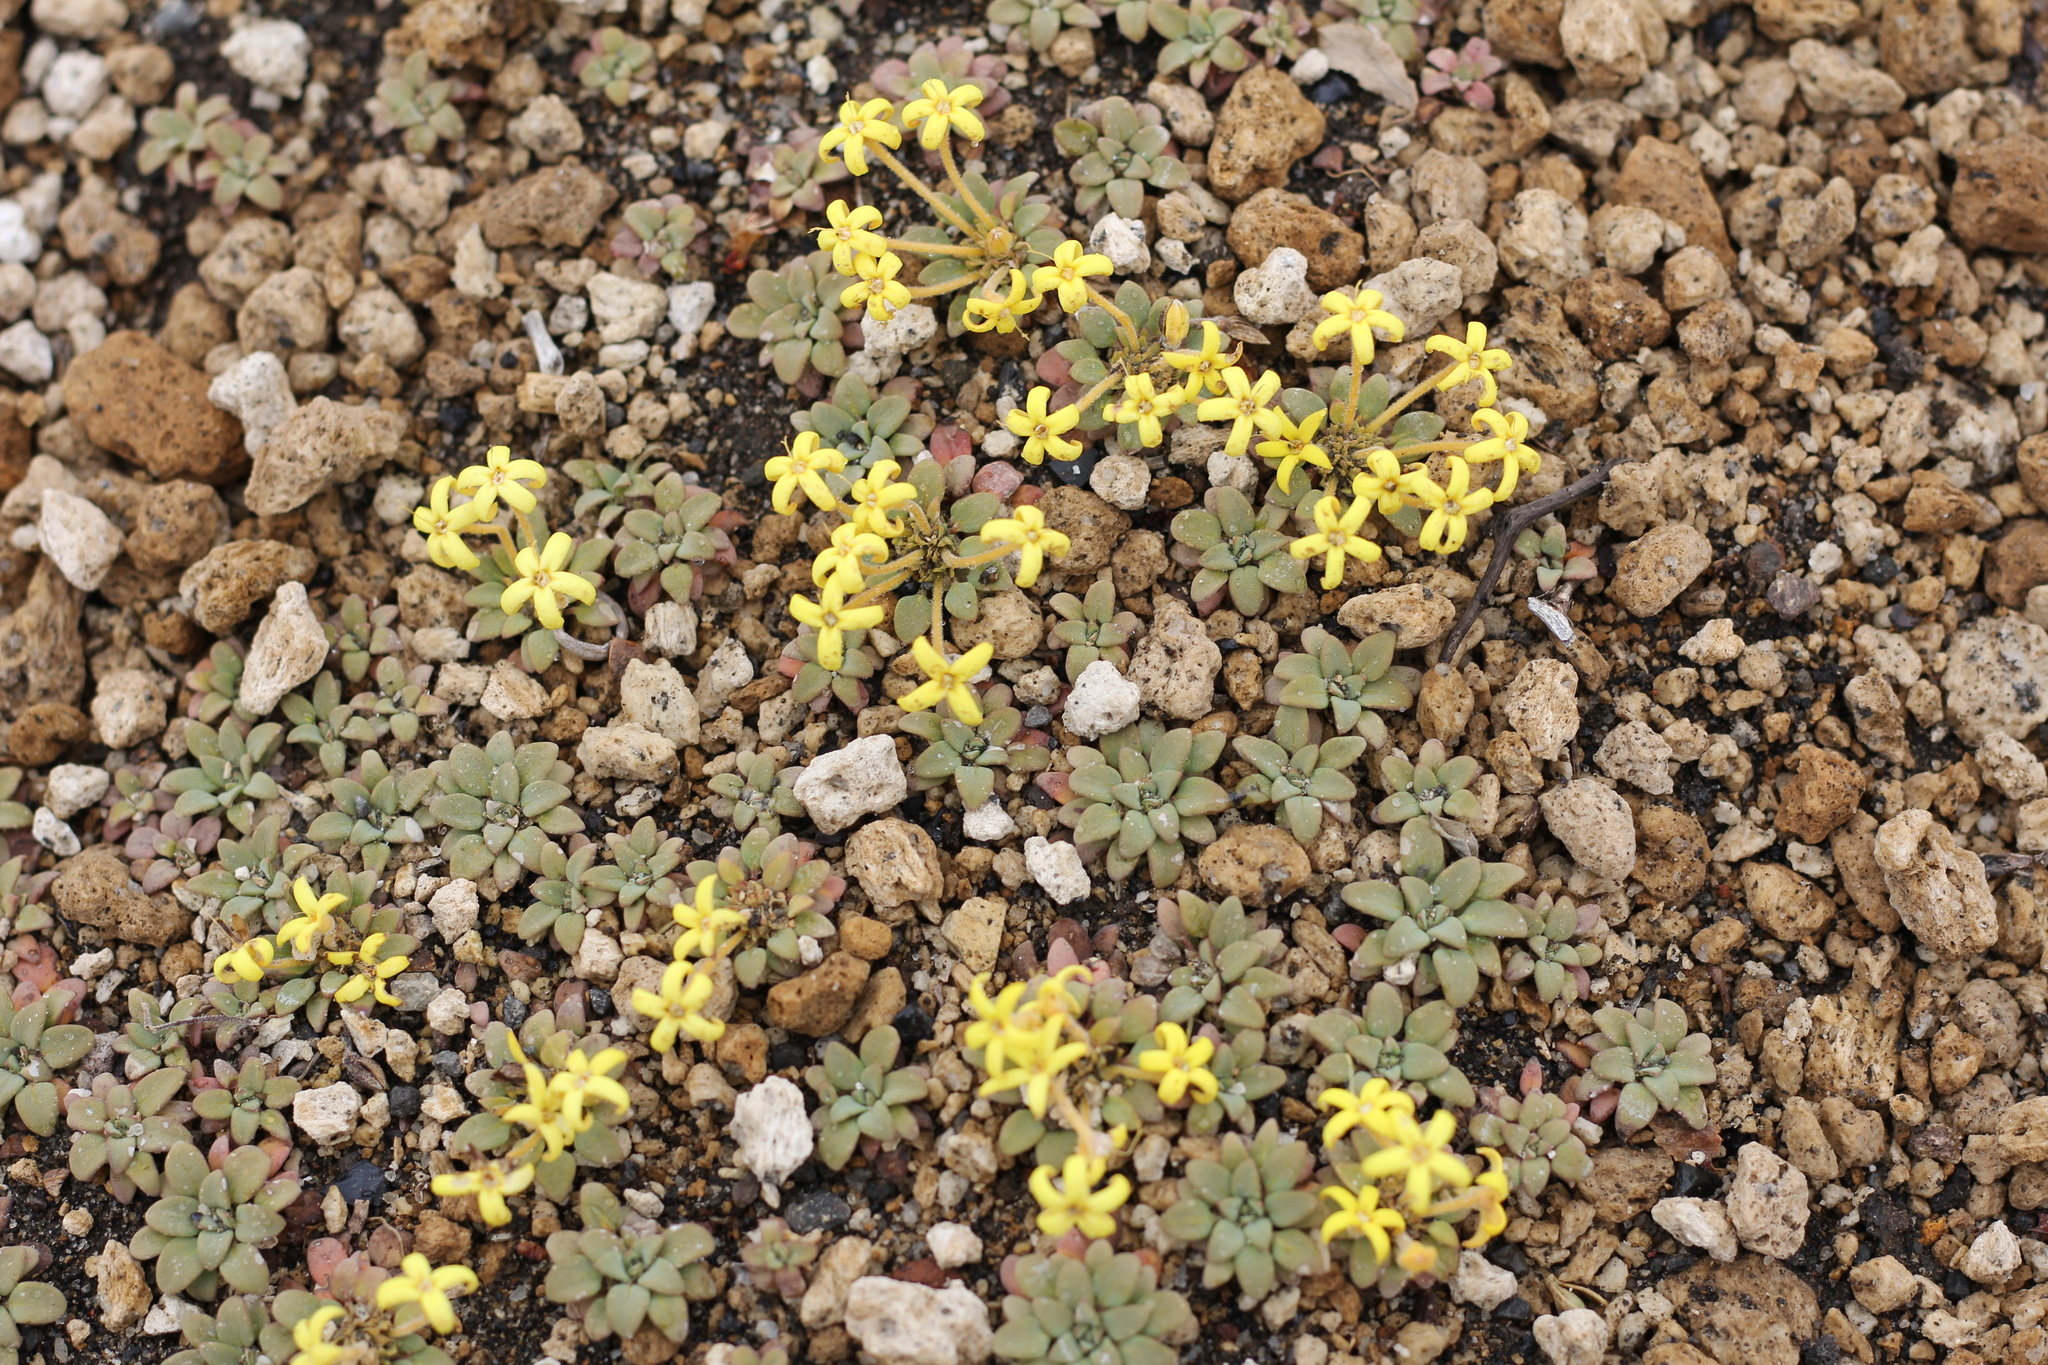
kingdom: Plantae
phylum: Tracheophyta
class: Magnoliopsida
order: Gentianales
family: Rubiaceae
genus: Oreopolus
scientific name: Oreopolus glacialis
